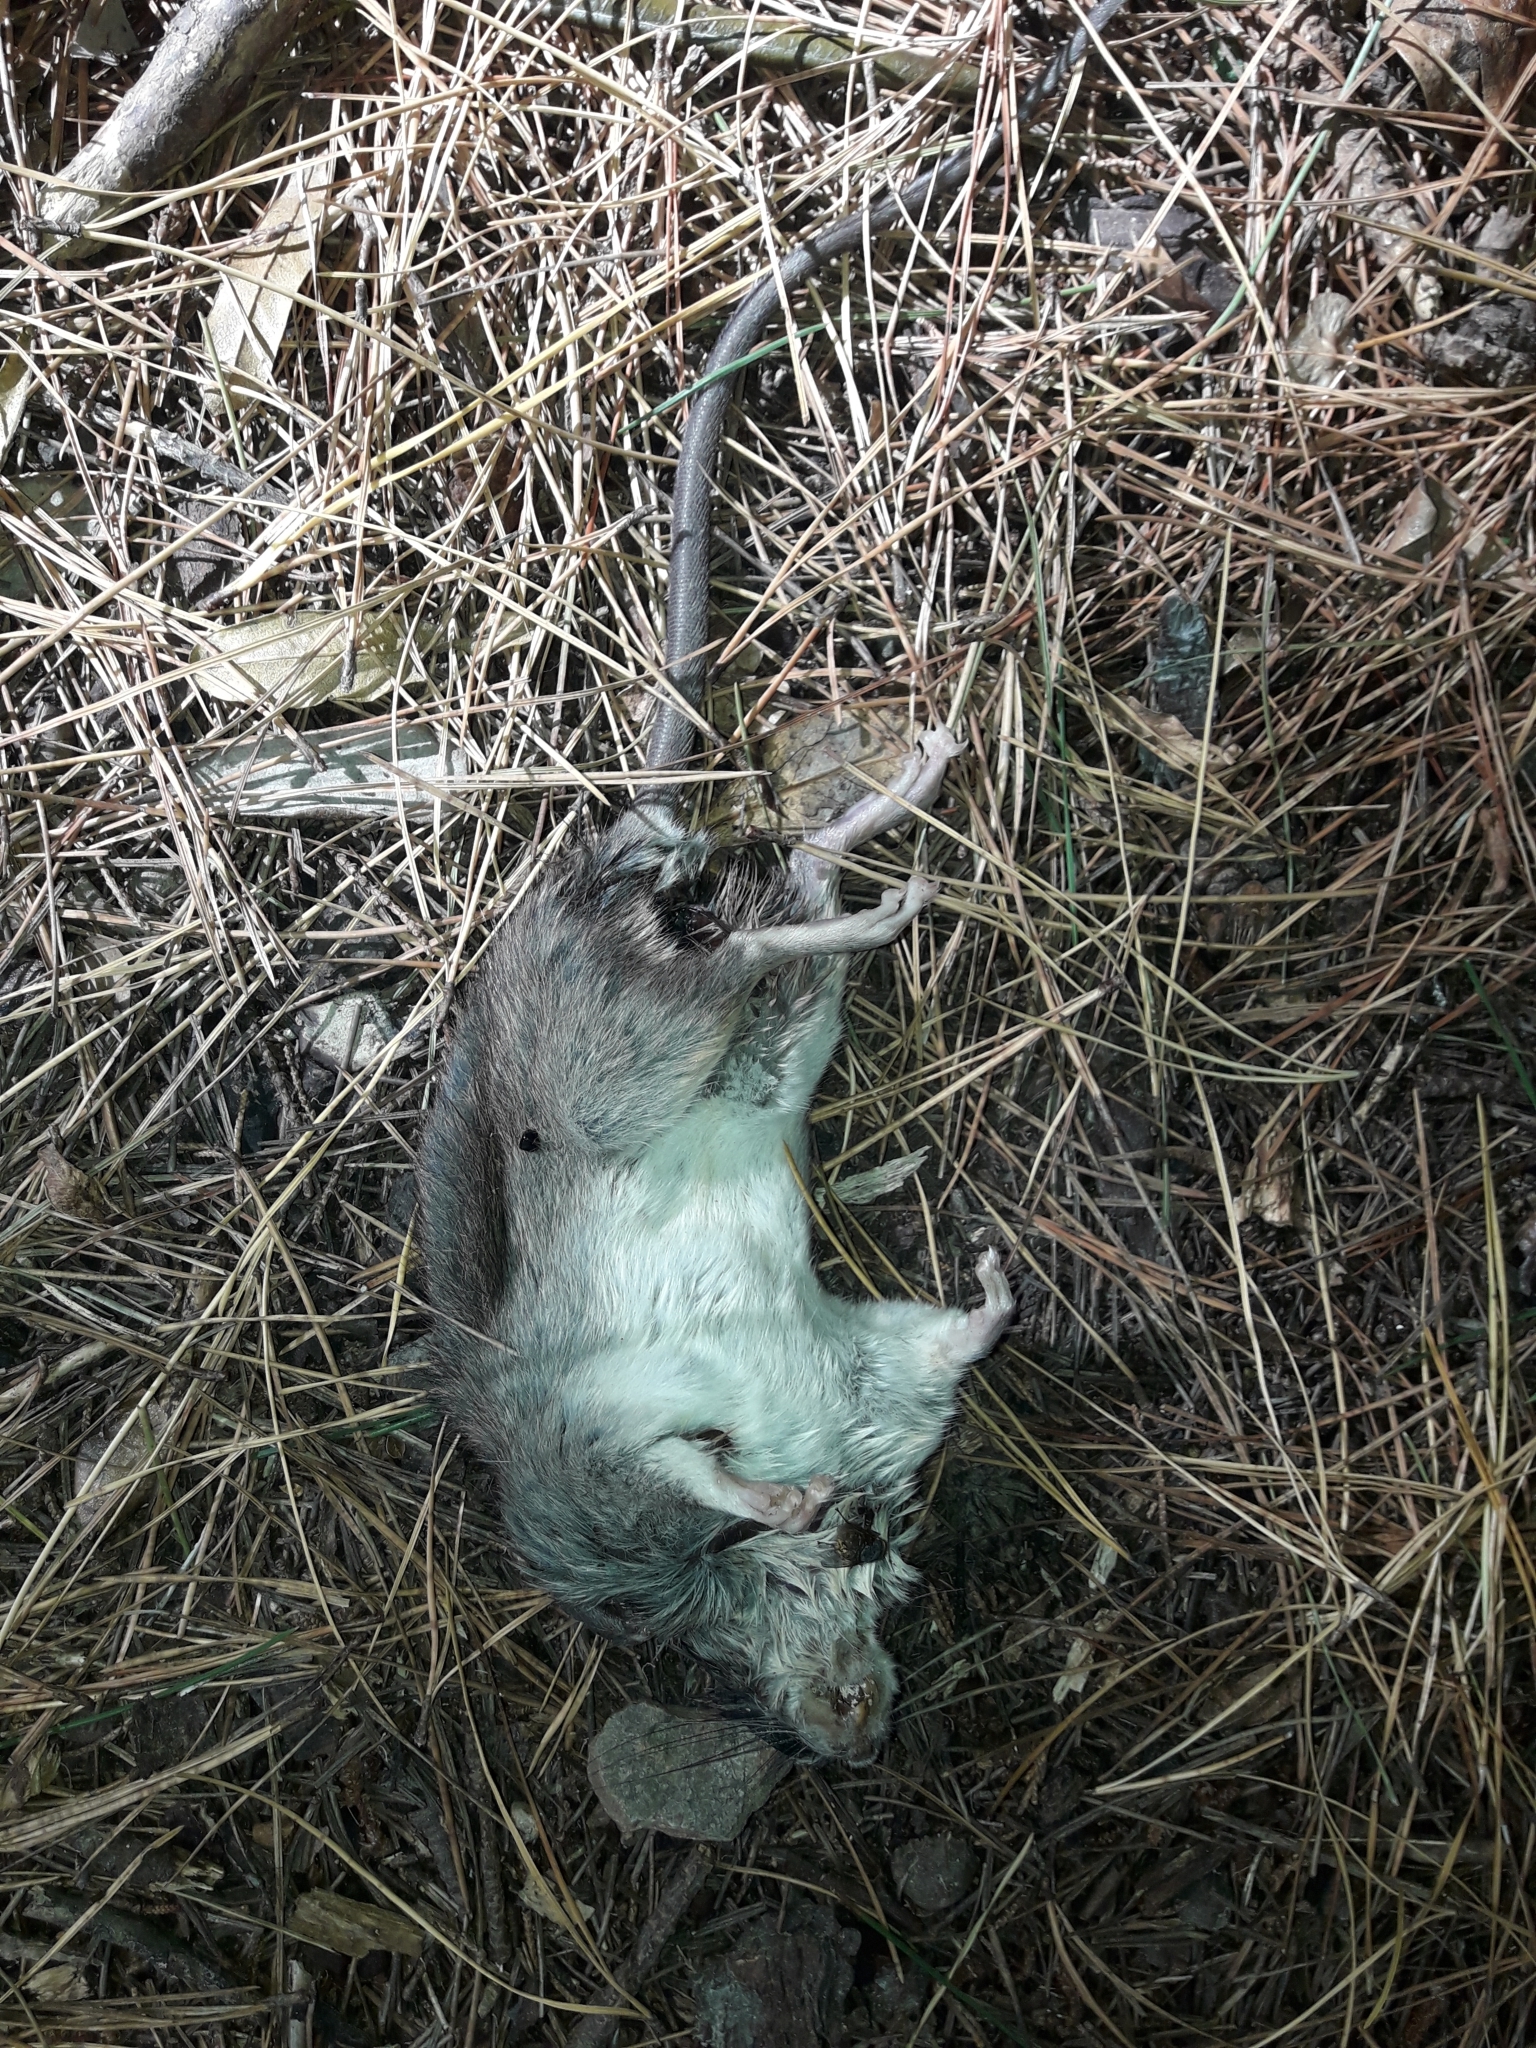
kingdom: Animalia
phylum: Chordata
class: Mammalia
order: Rodentia
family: Muridae
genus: Rattus
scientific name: Rattus rattus
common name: Black rat
